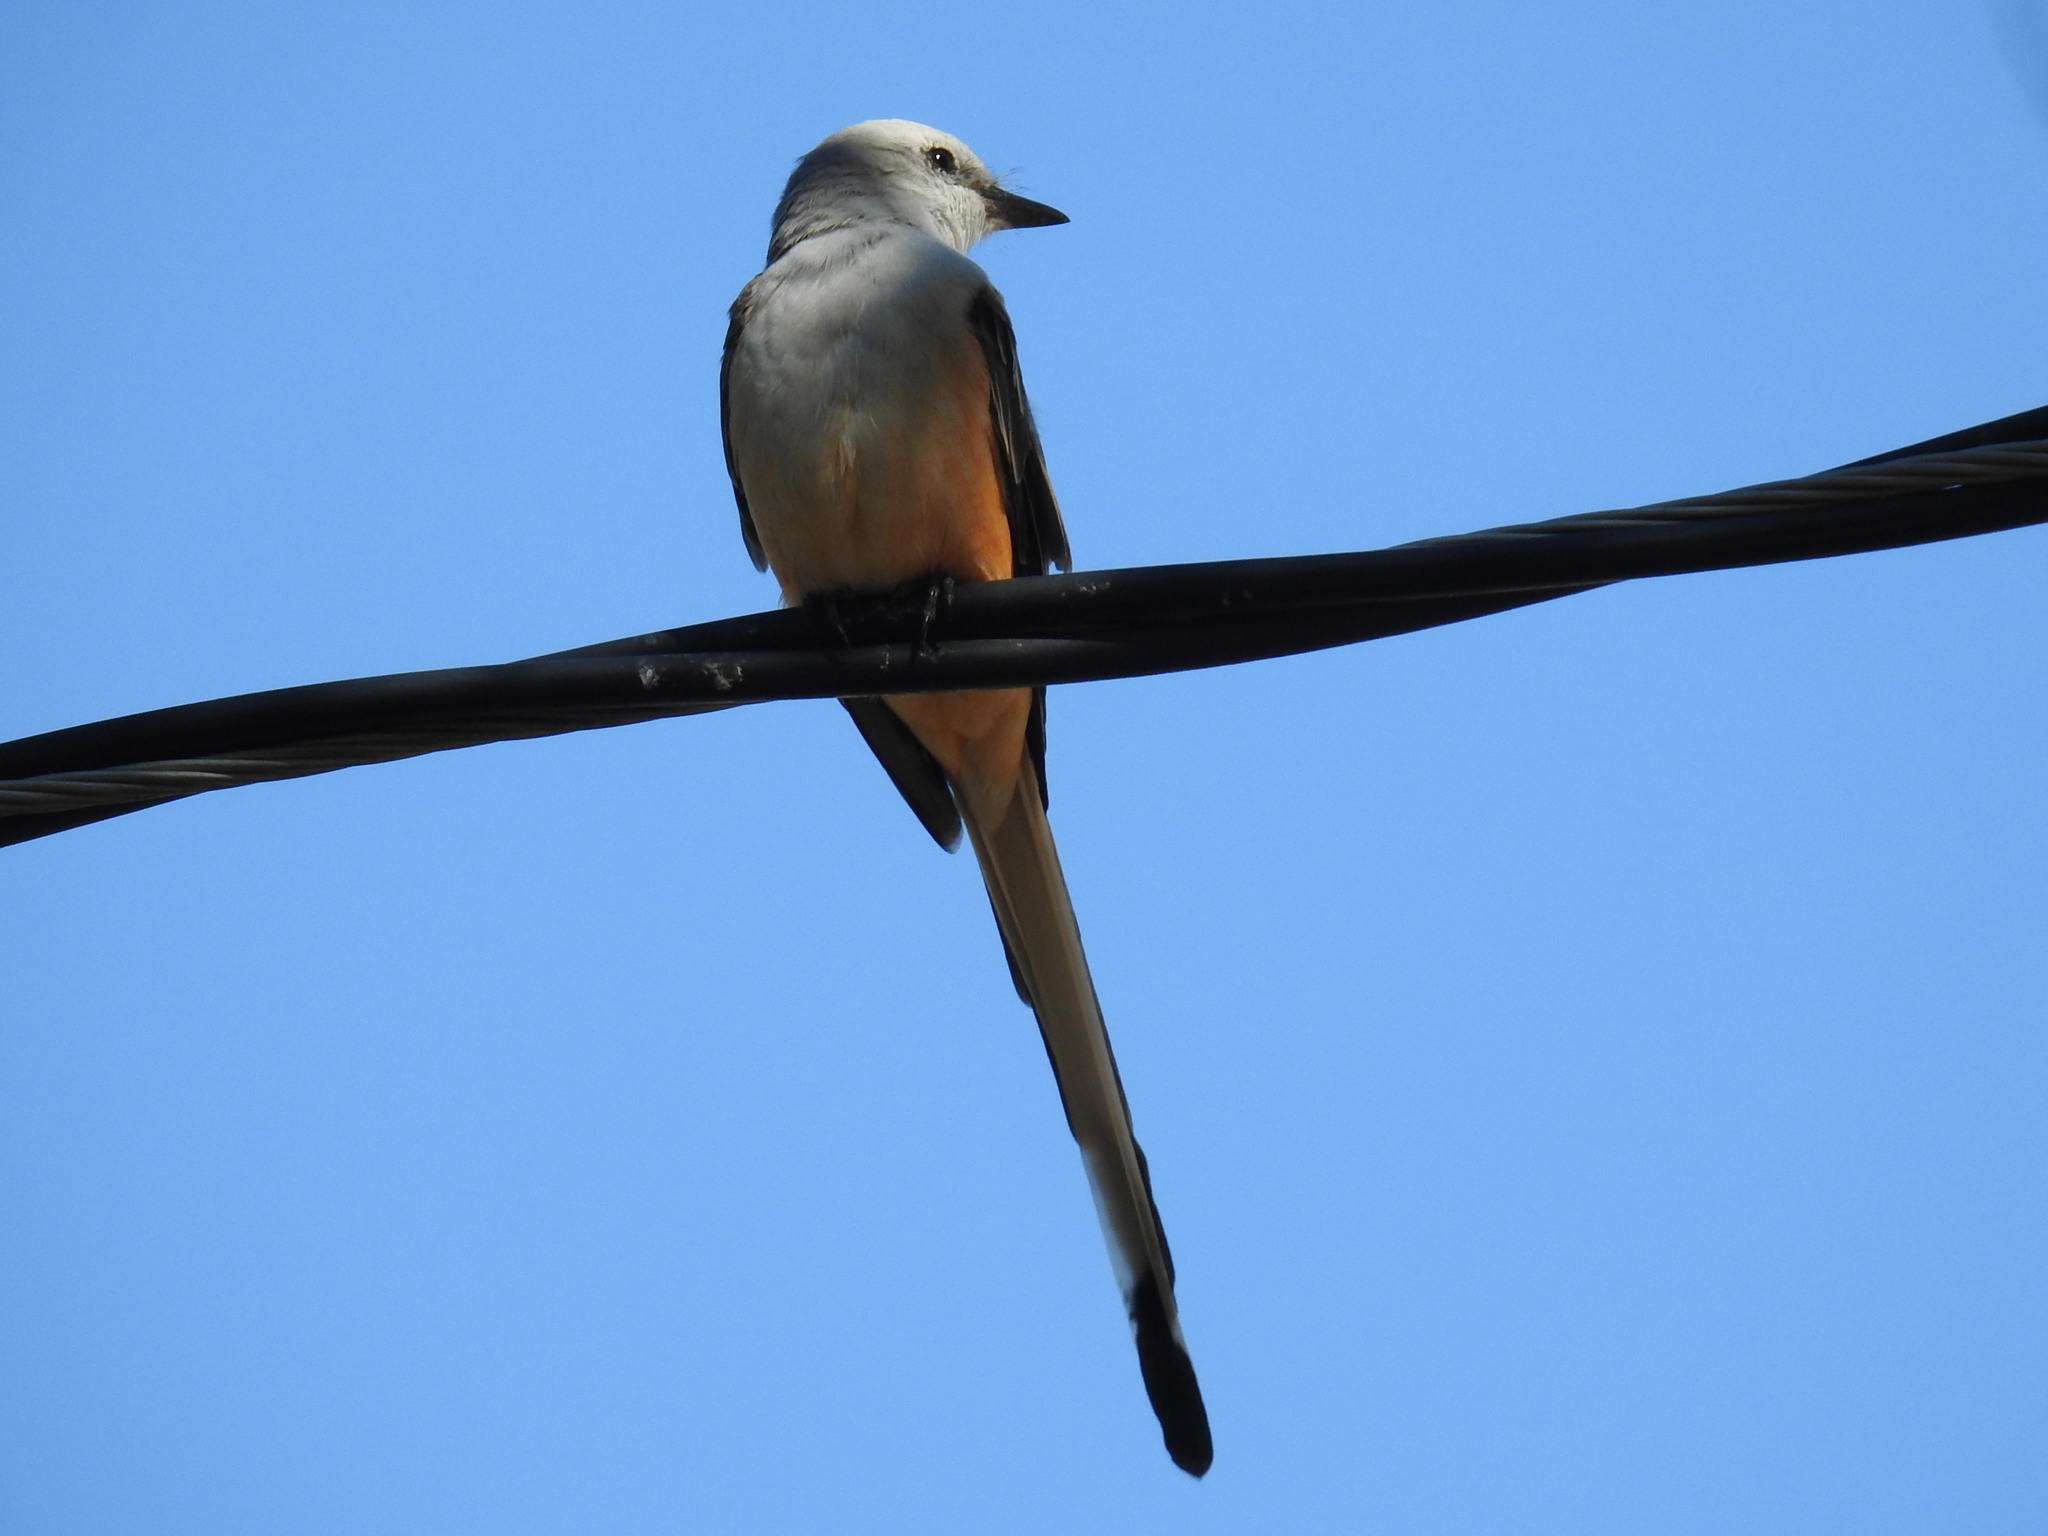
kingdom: Animalia
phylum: Chordata
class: Aves
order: Passeriformes
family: Tyrannidae
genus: Tyrannus
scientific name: Tyrannus forficatus
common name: Scissor-tailed flycatcher
